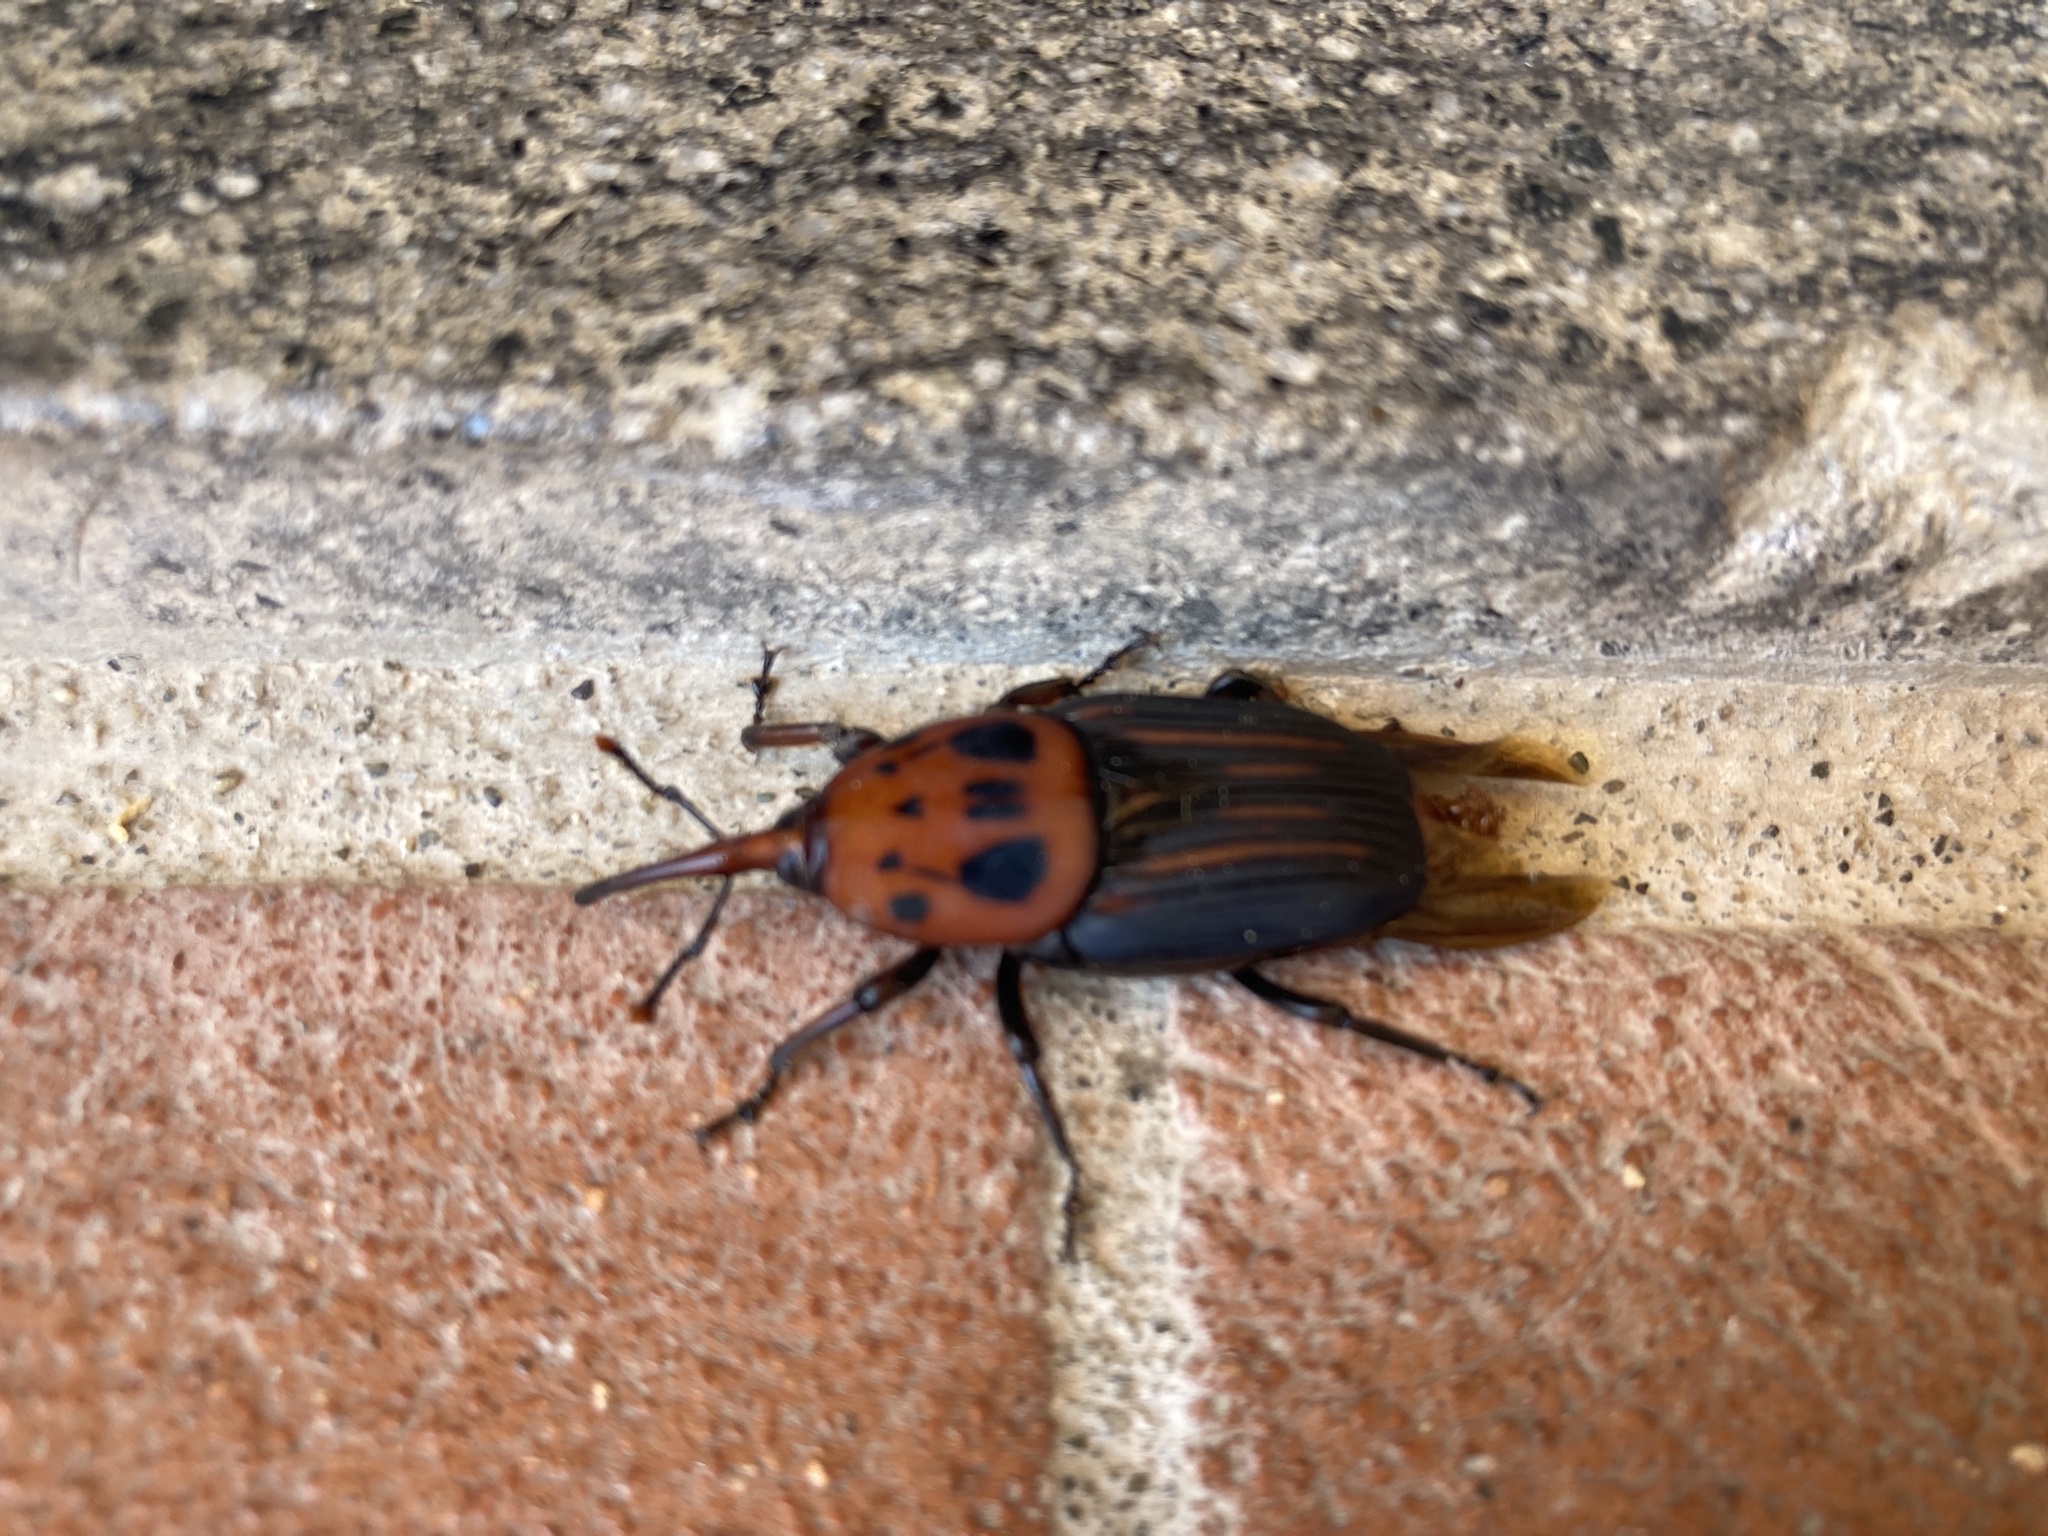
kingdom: Animalia
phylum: Arthropoda
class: Insecta
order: Coleoptera
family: Dryophthoridae
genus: Rhynchophorus
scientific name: Rhynchophorus ferrugineus
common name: Red palm weevil
